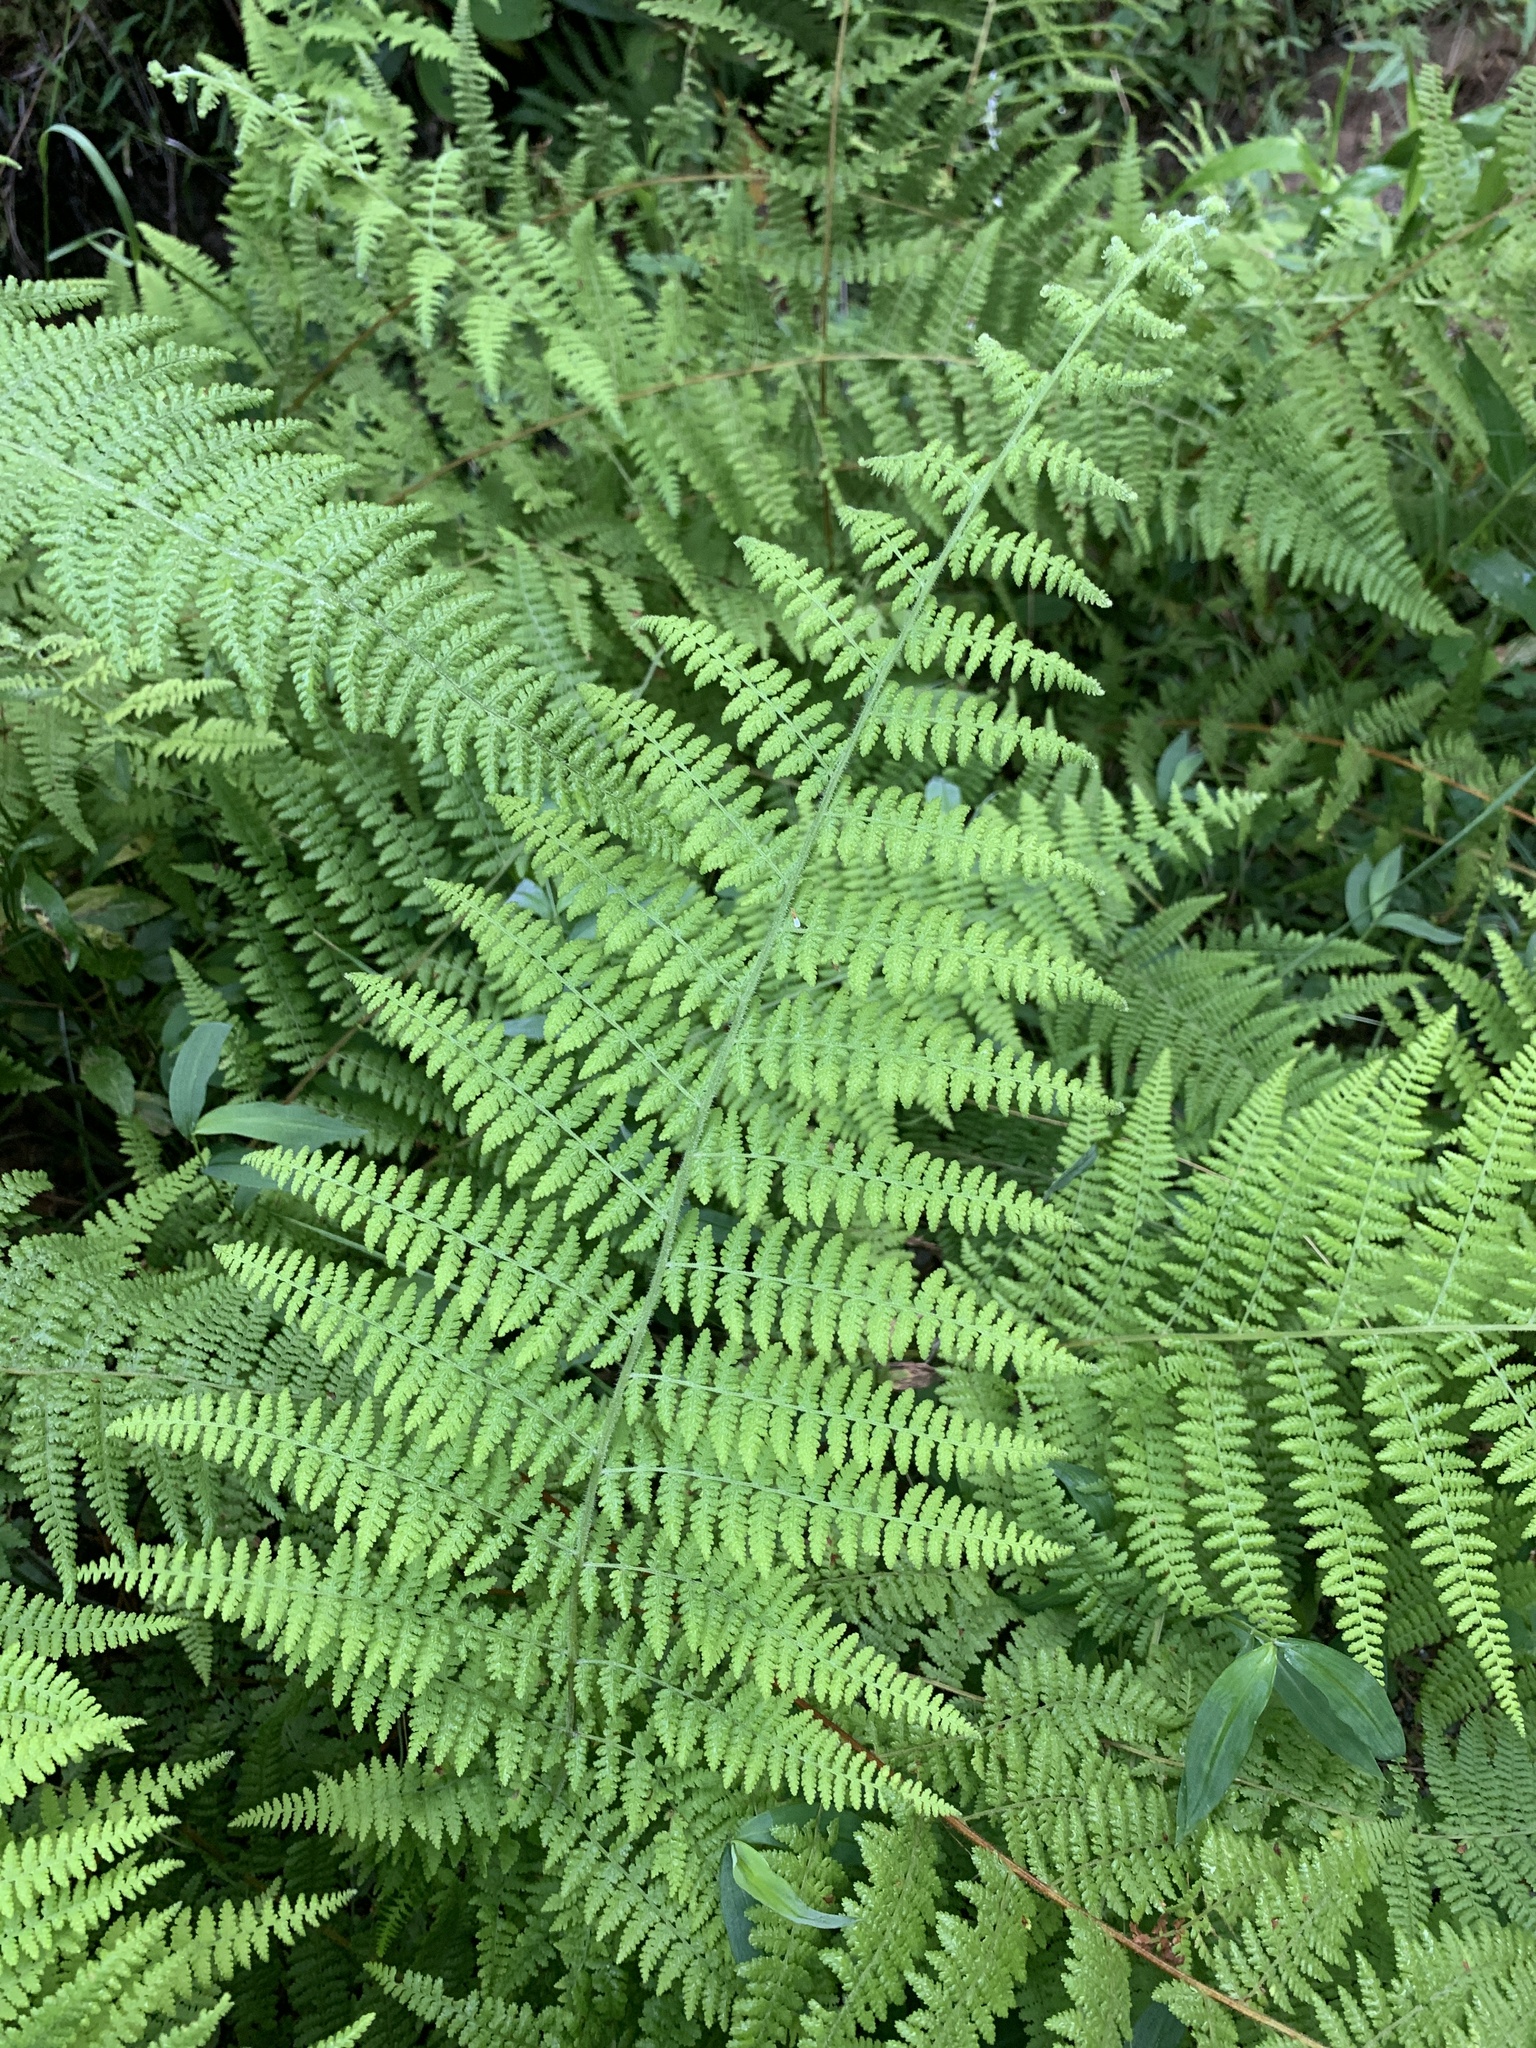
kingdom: Plantae
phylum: Tracheophyta
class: Polypodiopsida
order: Polypodiales
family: Dennstaedtiaceae
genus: Sitobolium
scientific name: Sitobolium punctilobum
